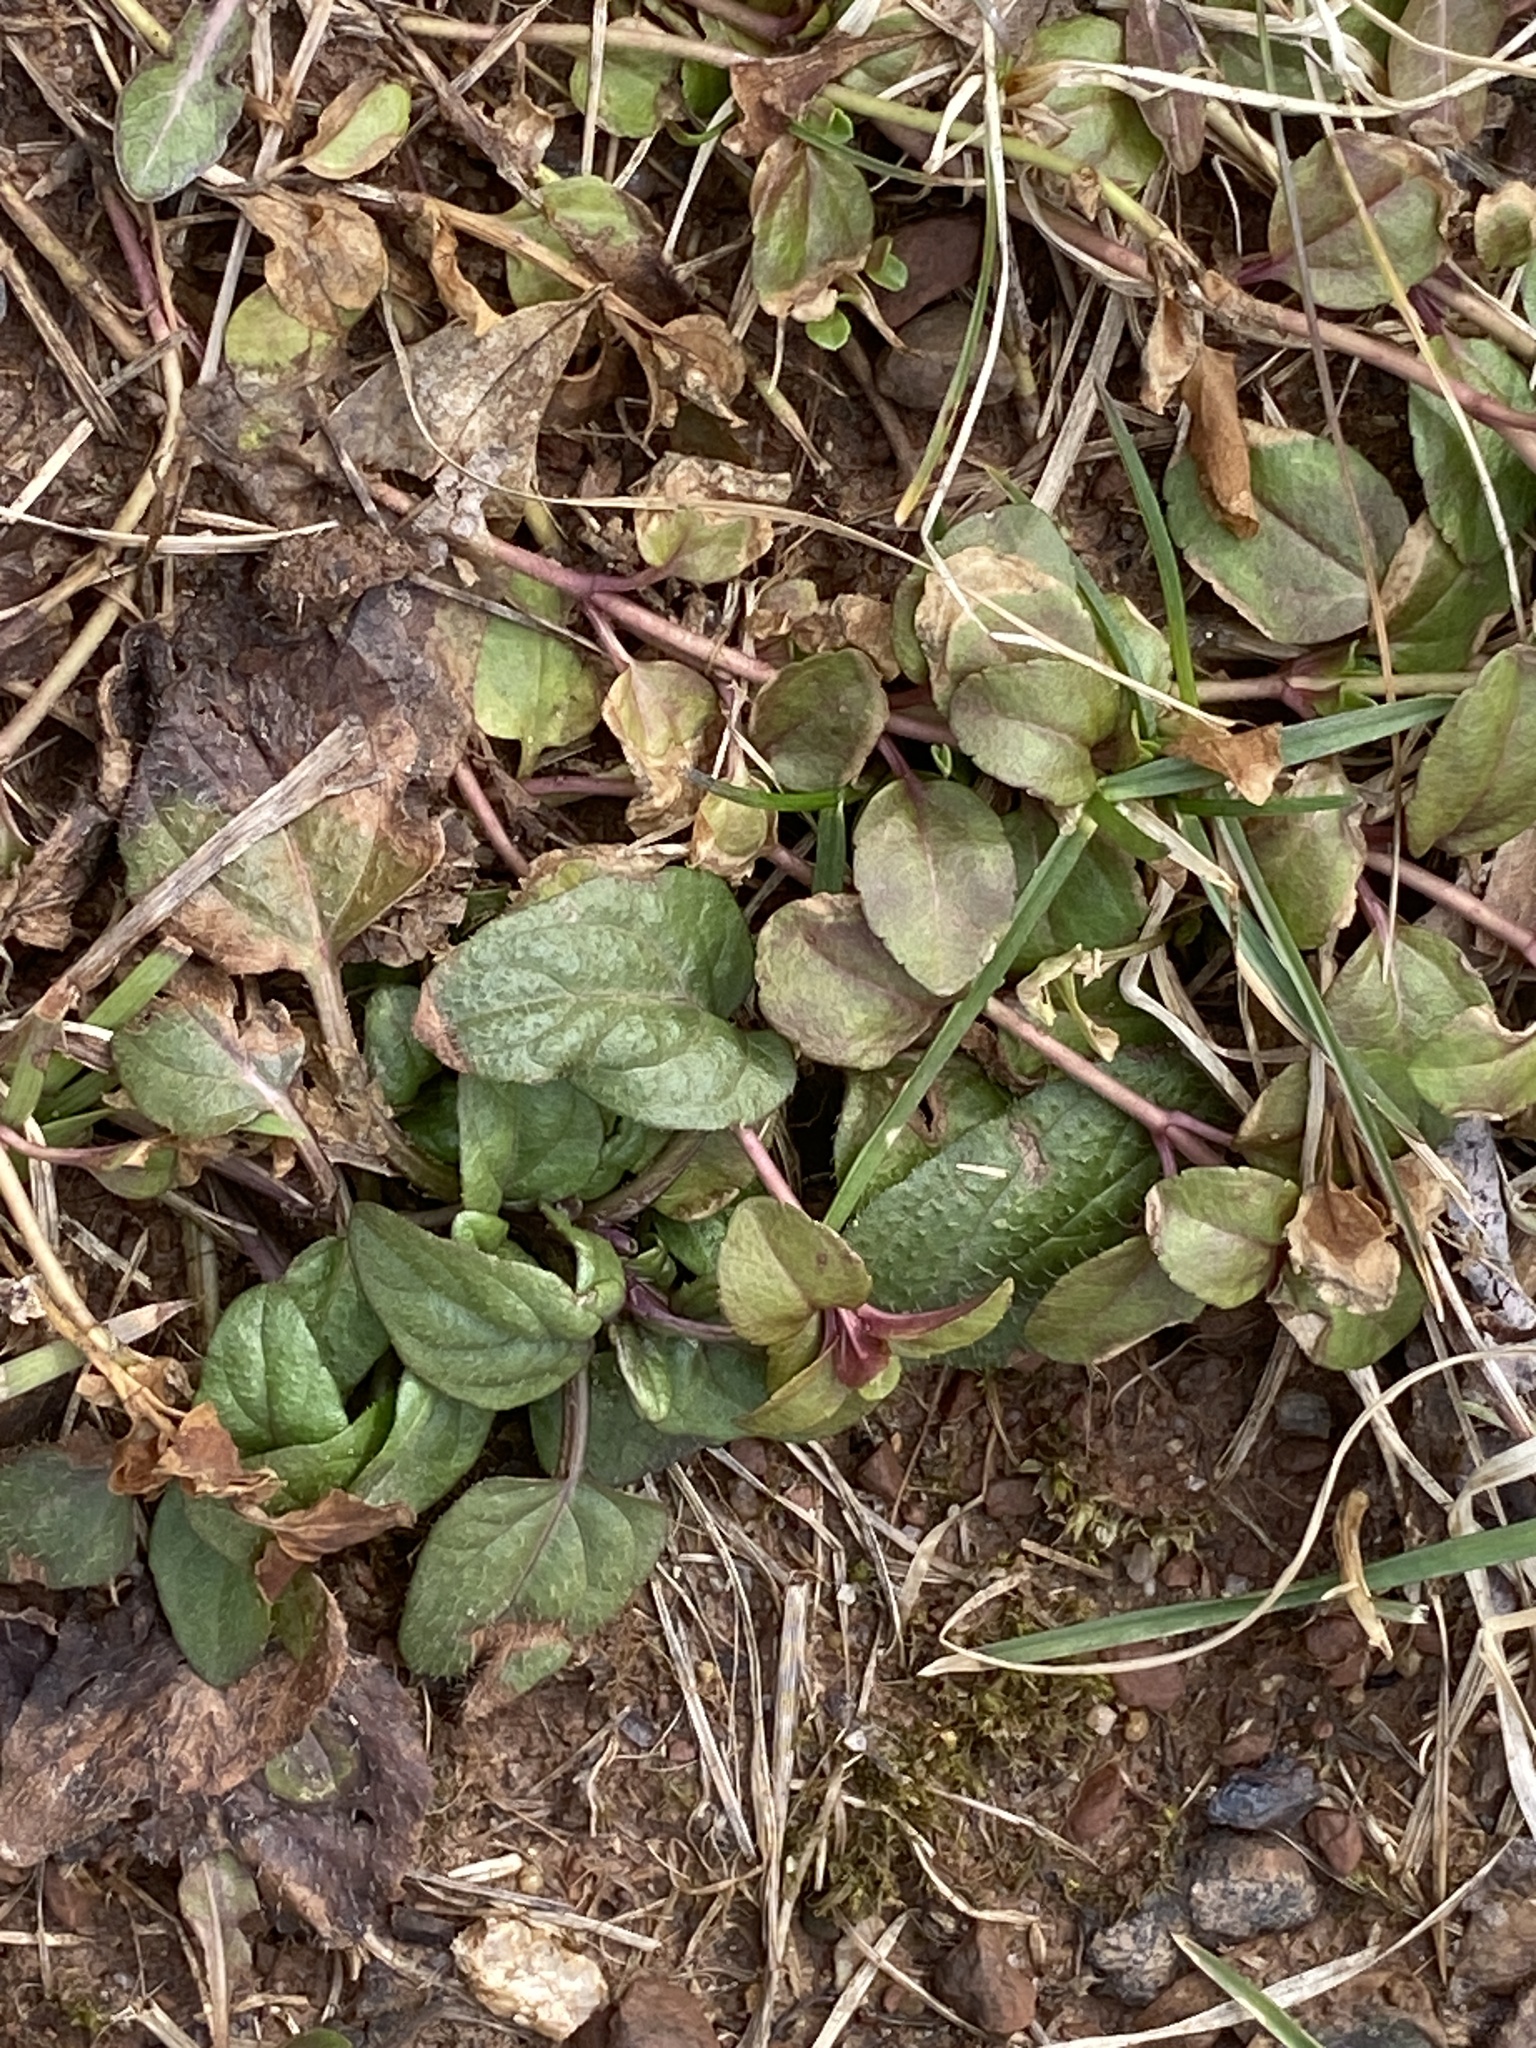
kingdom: Plantae
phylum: Tracheophyta
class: Magnoliopsida
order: Lamiales
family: Lamiaceae
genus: Prunella
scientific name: Prunella vulgaris
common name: Heal-all
